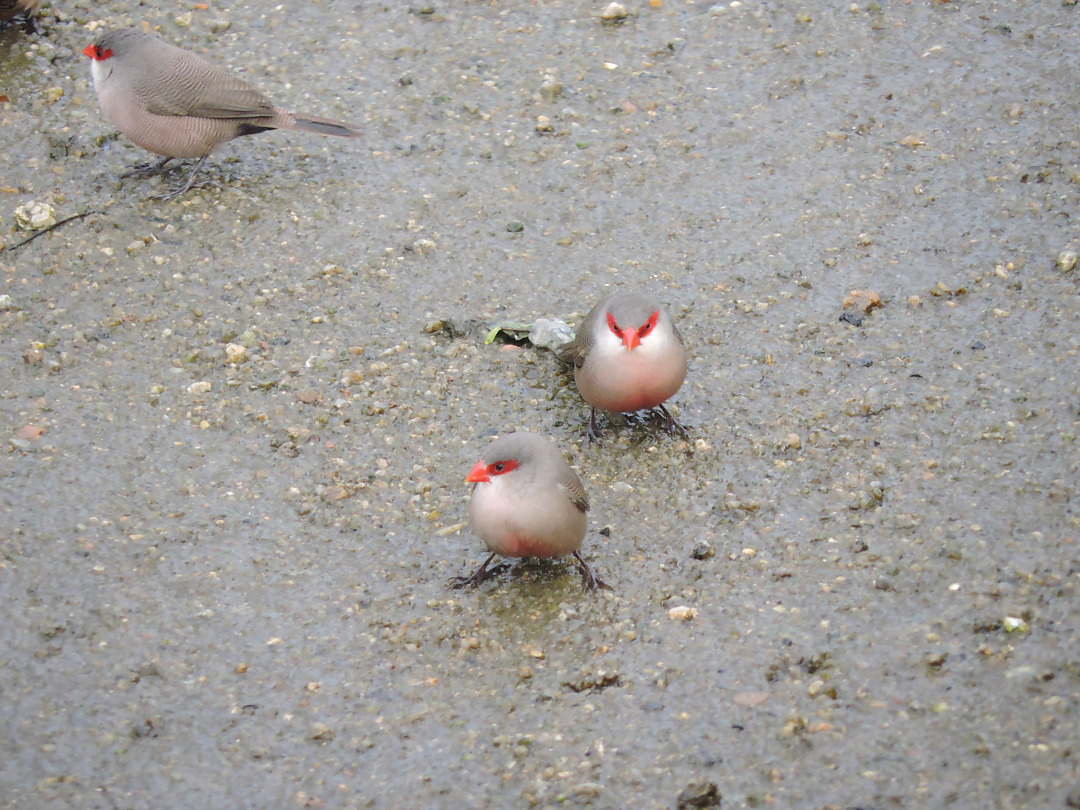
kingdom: Animalia
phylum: Chordata
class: Aves
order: Passeriformes
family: Estrildidae
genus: Estrilda
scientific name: Estrilda astrild
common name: Common waxbill
